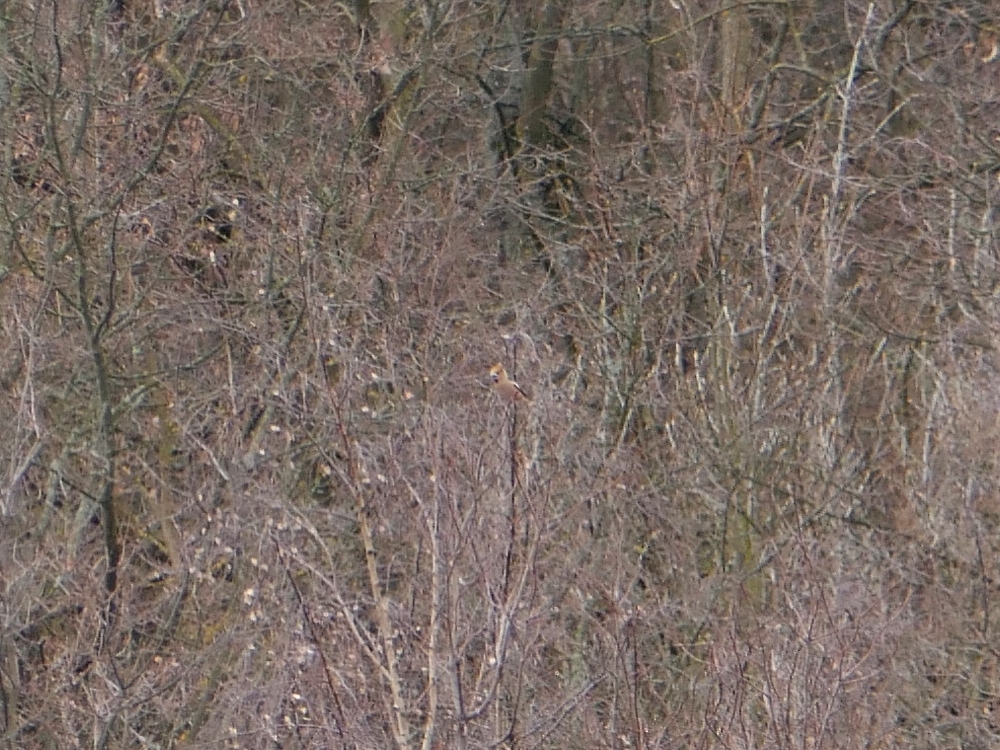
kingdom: Animalia
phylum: Chordata
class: Aves
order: Passeriformes
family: Fringillidae
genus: Coccothraustes
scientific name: Coccothraustes coccothraustes
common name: Hawfinch
